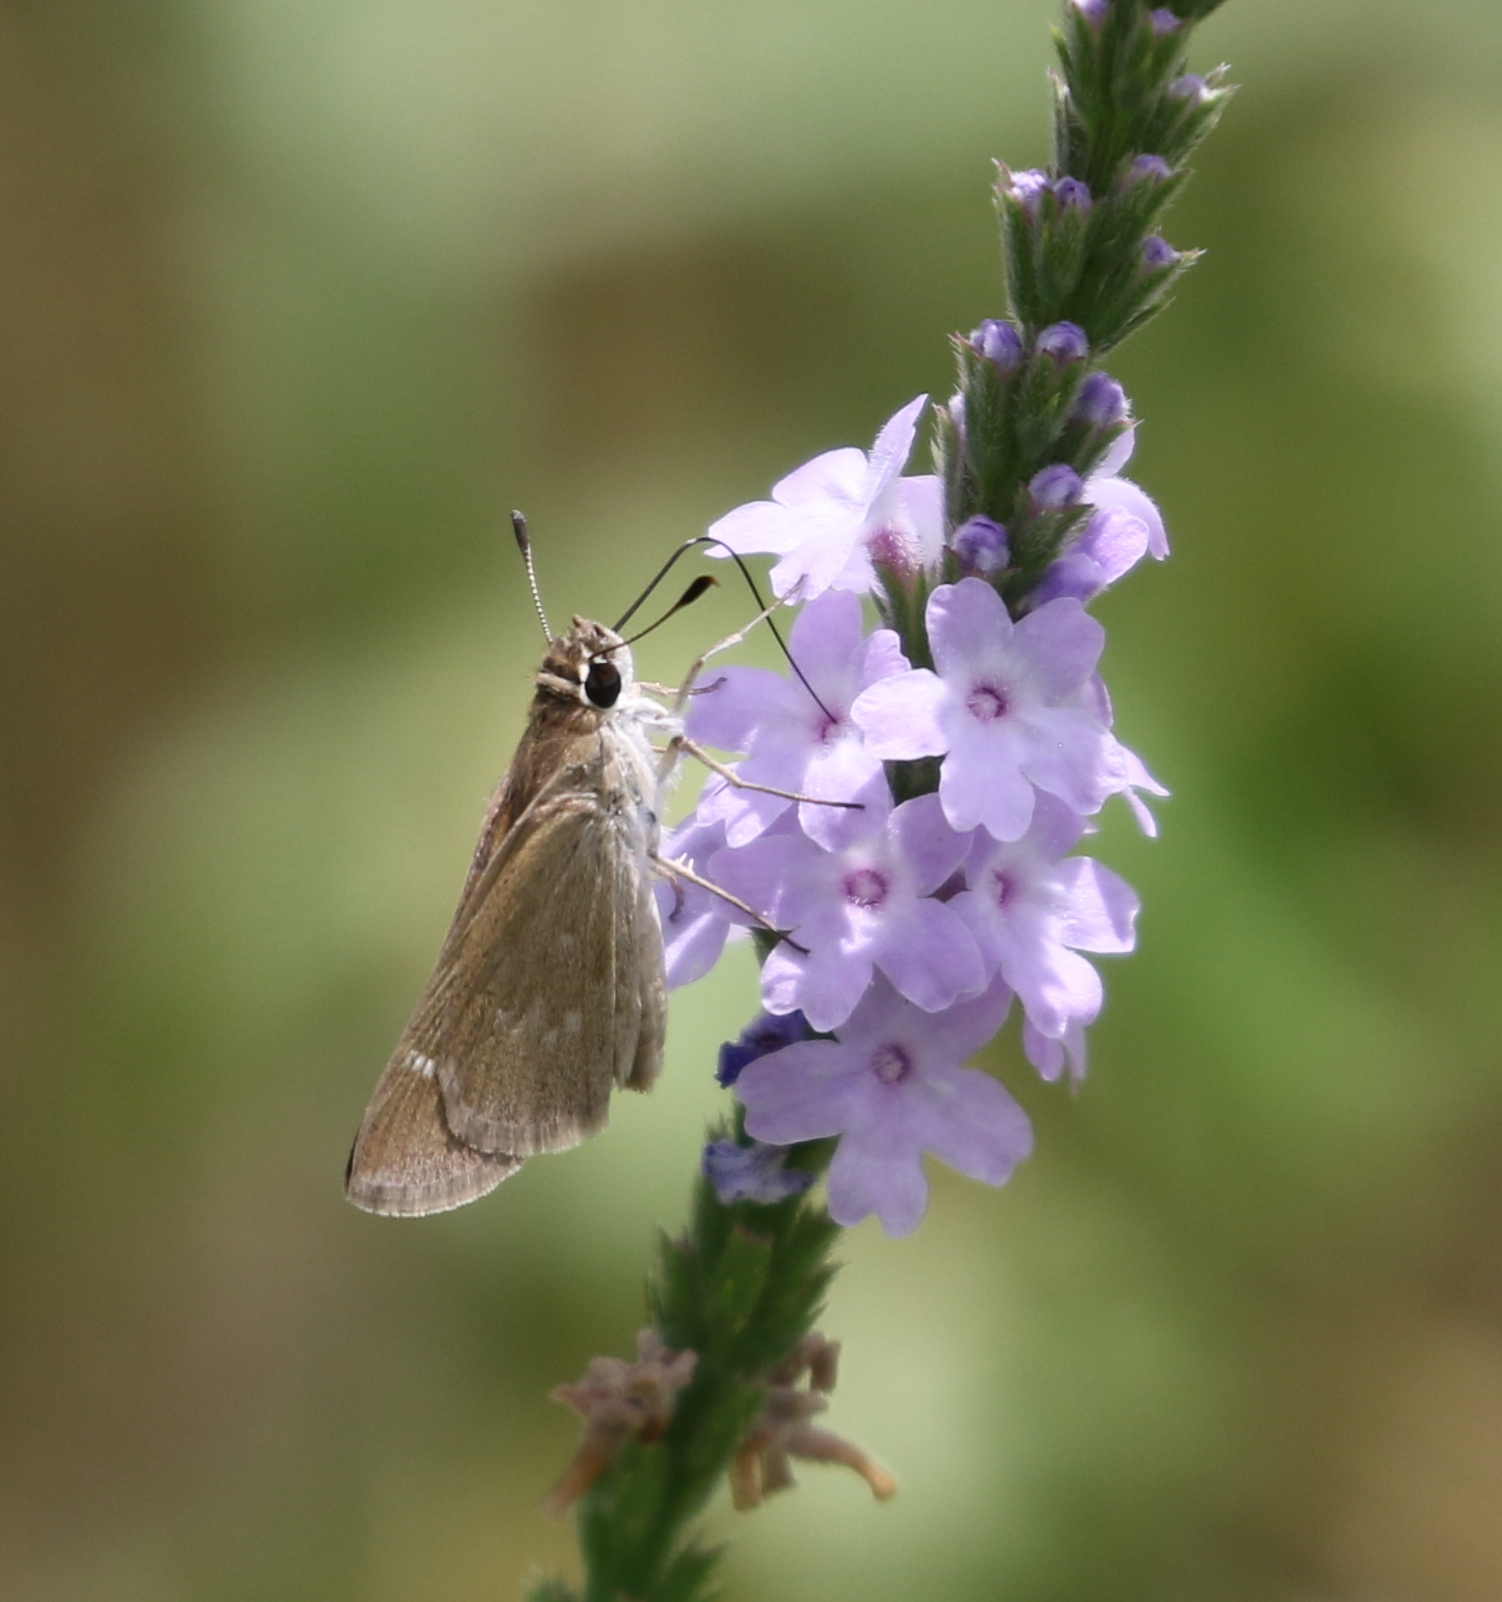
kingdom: Animalia
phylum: Arthropoda
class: Insecta
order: Lepidoptera
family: Hesperiidae
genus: Lerodea
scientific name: Lerodea eufala
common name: Eufala skipper
